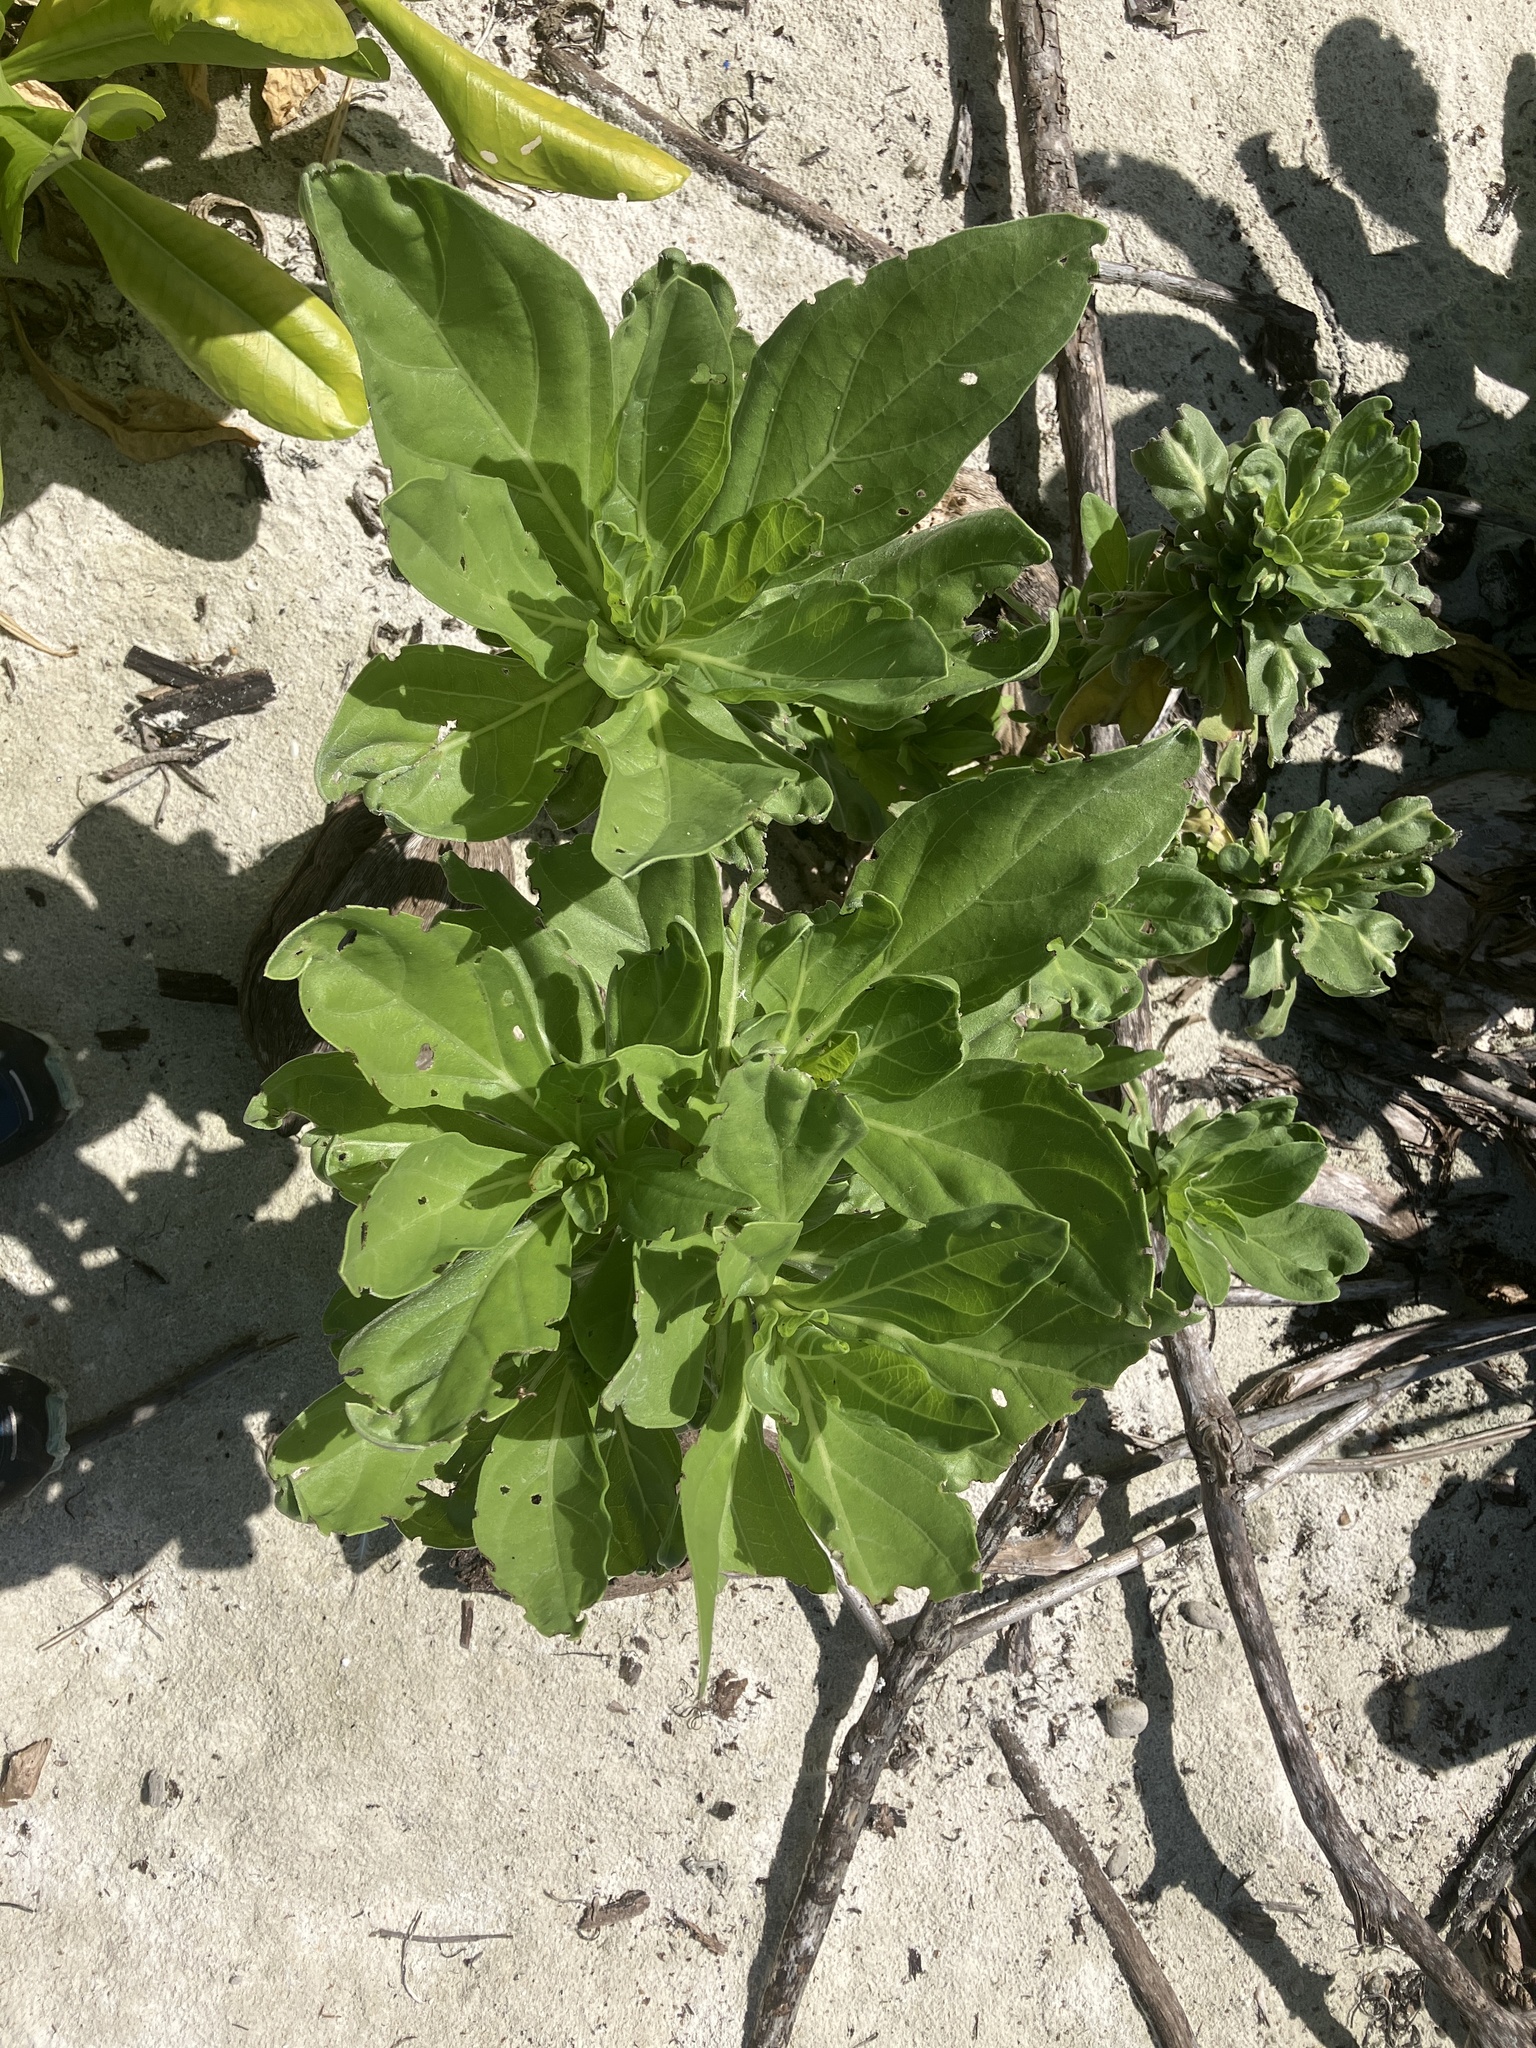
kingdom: Plantae
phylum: Tracheophyta
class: Magnoliopsida
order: Boraginales
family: Heliotropiaceae
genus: Heliotropium
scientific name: Heliotropium velutinum
